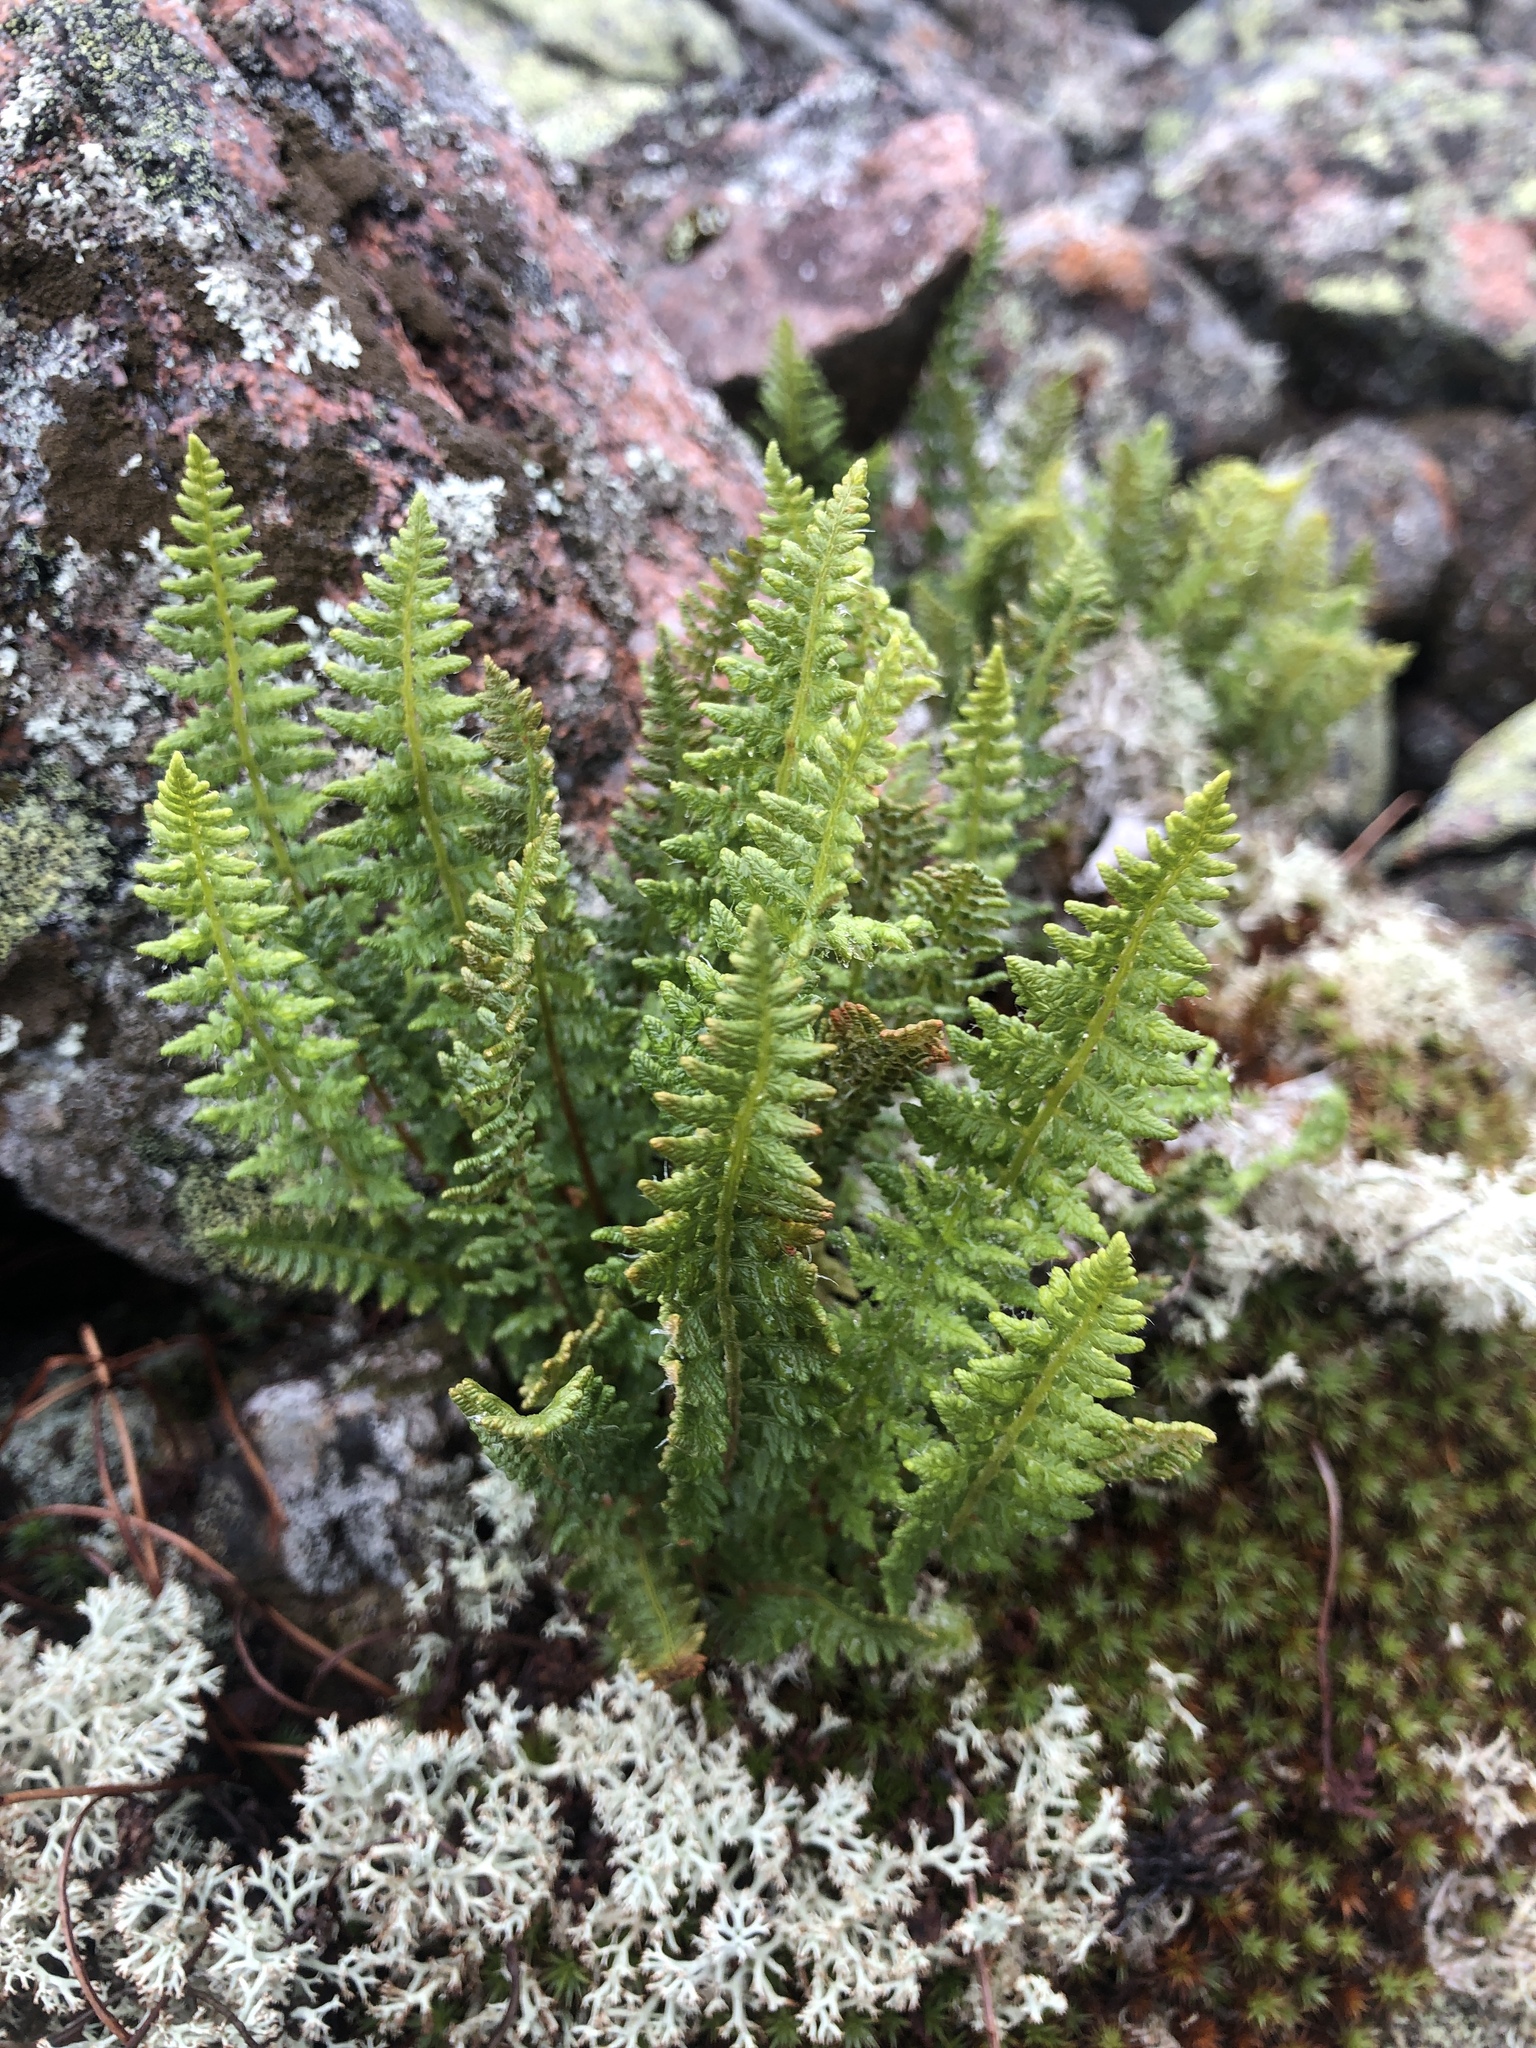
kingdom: Plantae
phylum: Tracheophyta
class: Polypodiopsida
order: Polypodiales
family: Woodsiaceae
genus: Woodsia
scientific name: Woodsia ilvensis
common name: Fragrant woodsia
